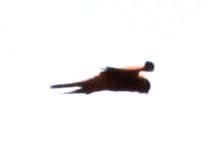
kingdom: Animalia
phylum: Chordata
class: Aves
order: Falconiformes
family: Falconidae
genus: Falco
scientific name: Falco rupicolus
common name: Rock kestrel
